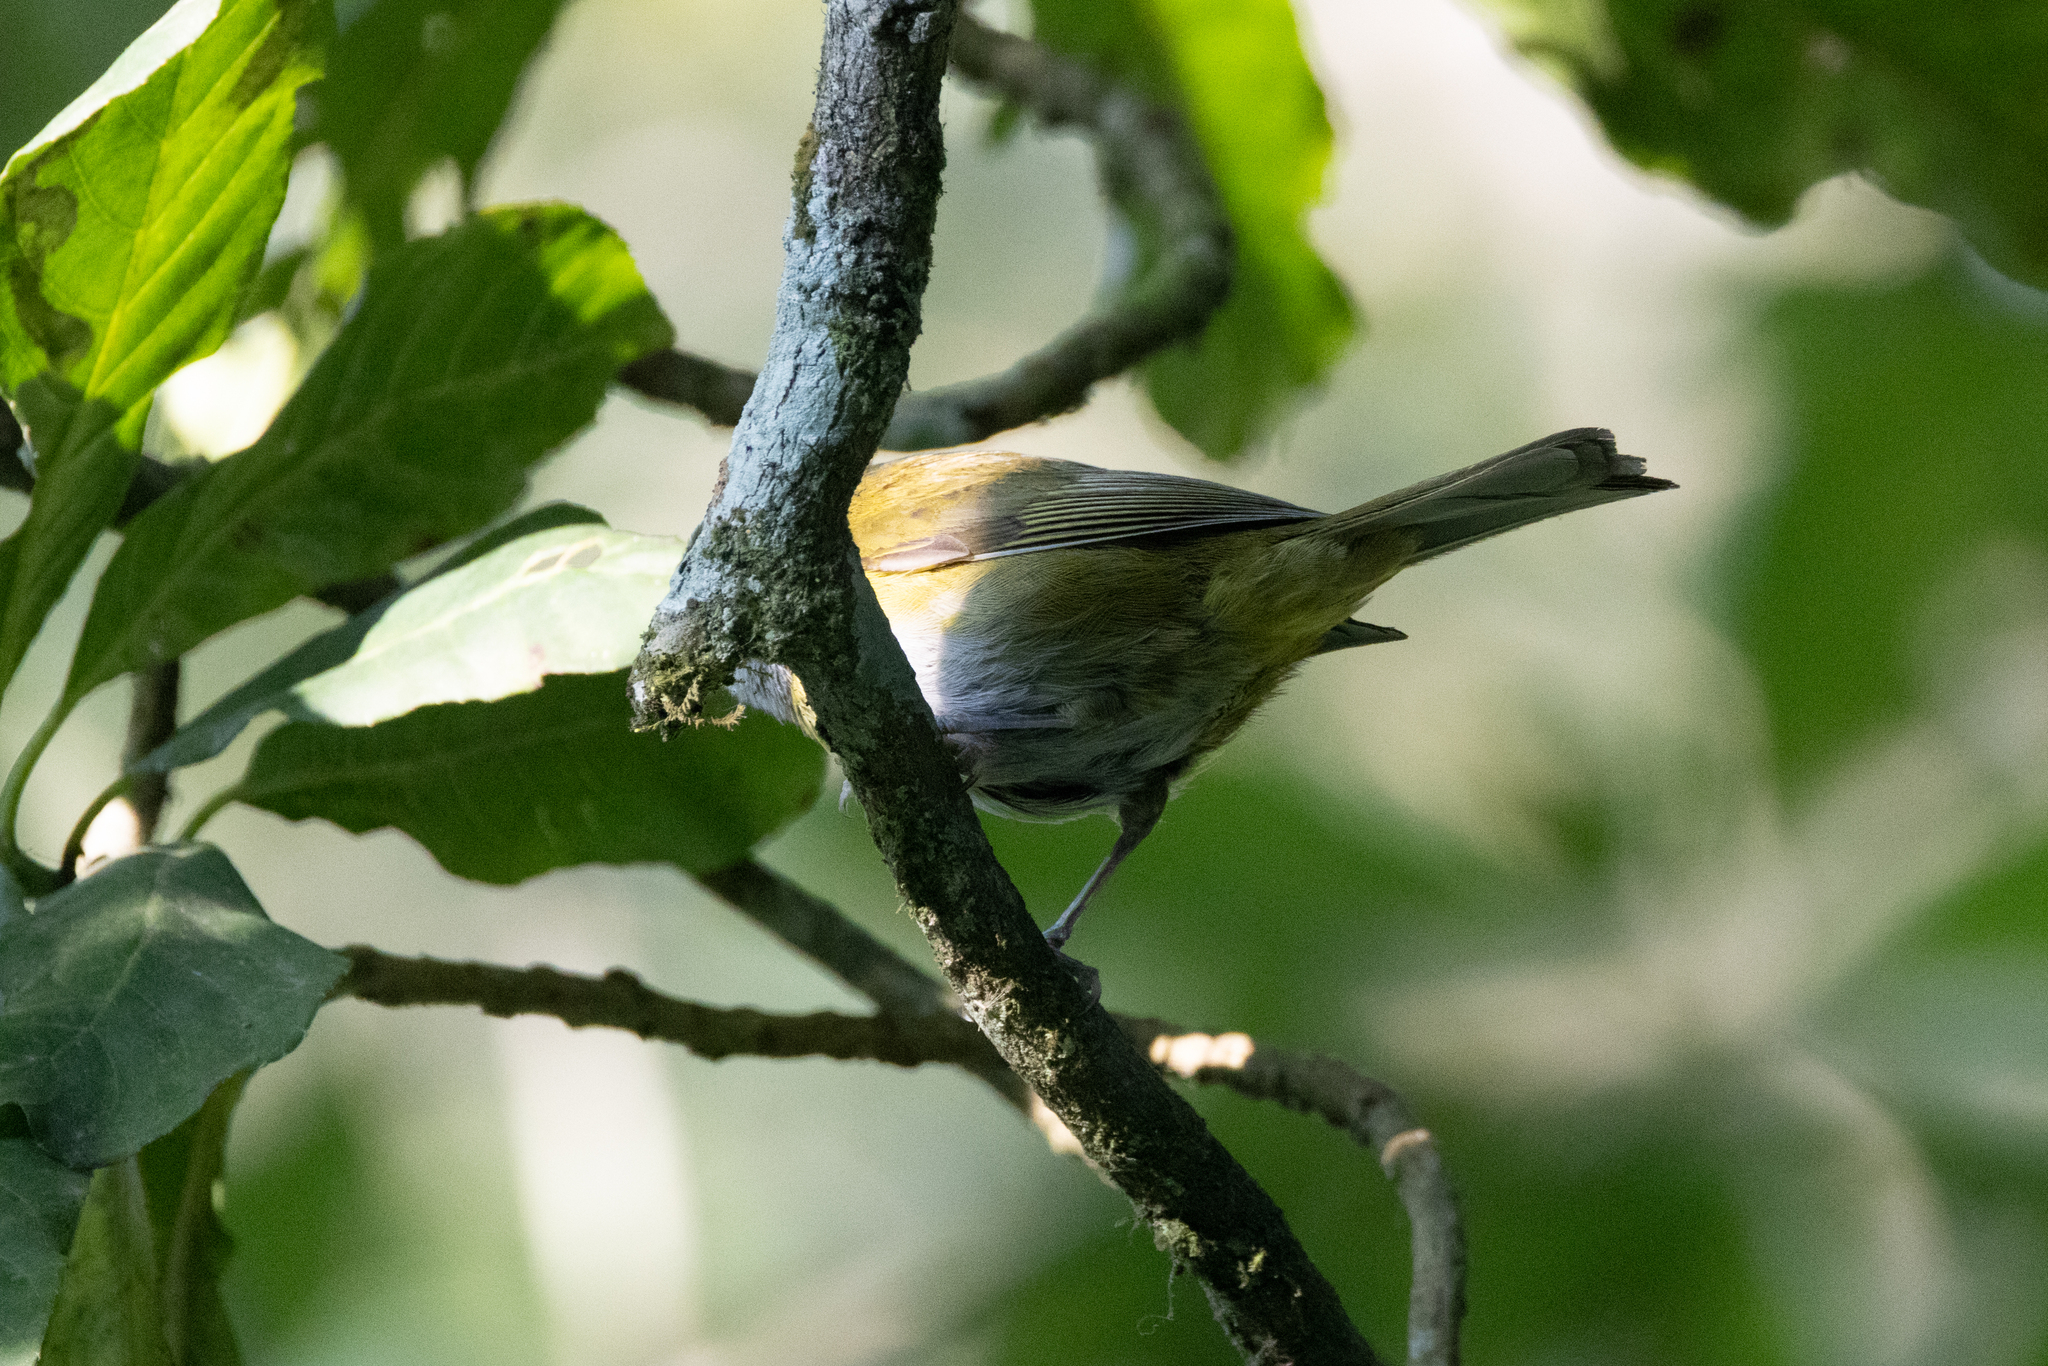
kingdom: Animalia
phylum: Chordata
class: Aves
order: Passeriformes
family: Passerellidae
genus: Chlorospingus
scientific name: Chlorospingus flavopectus
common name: Common chlorospingus
